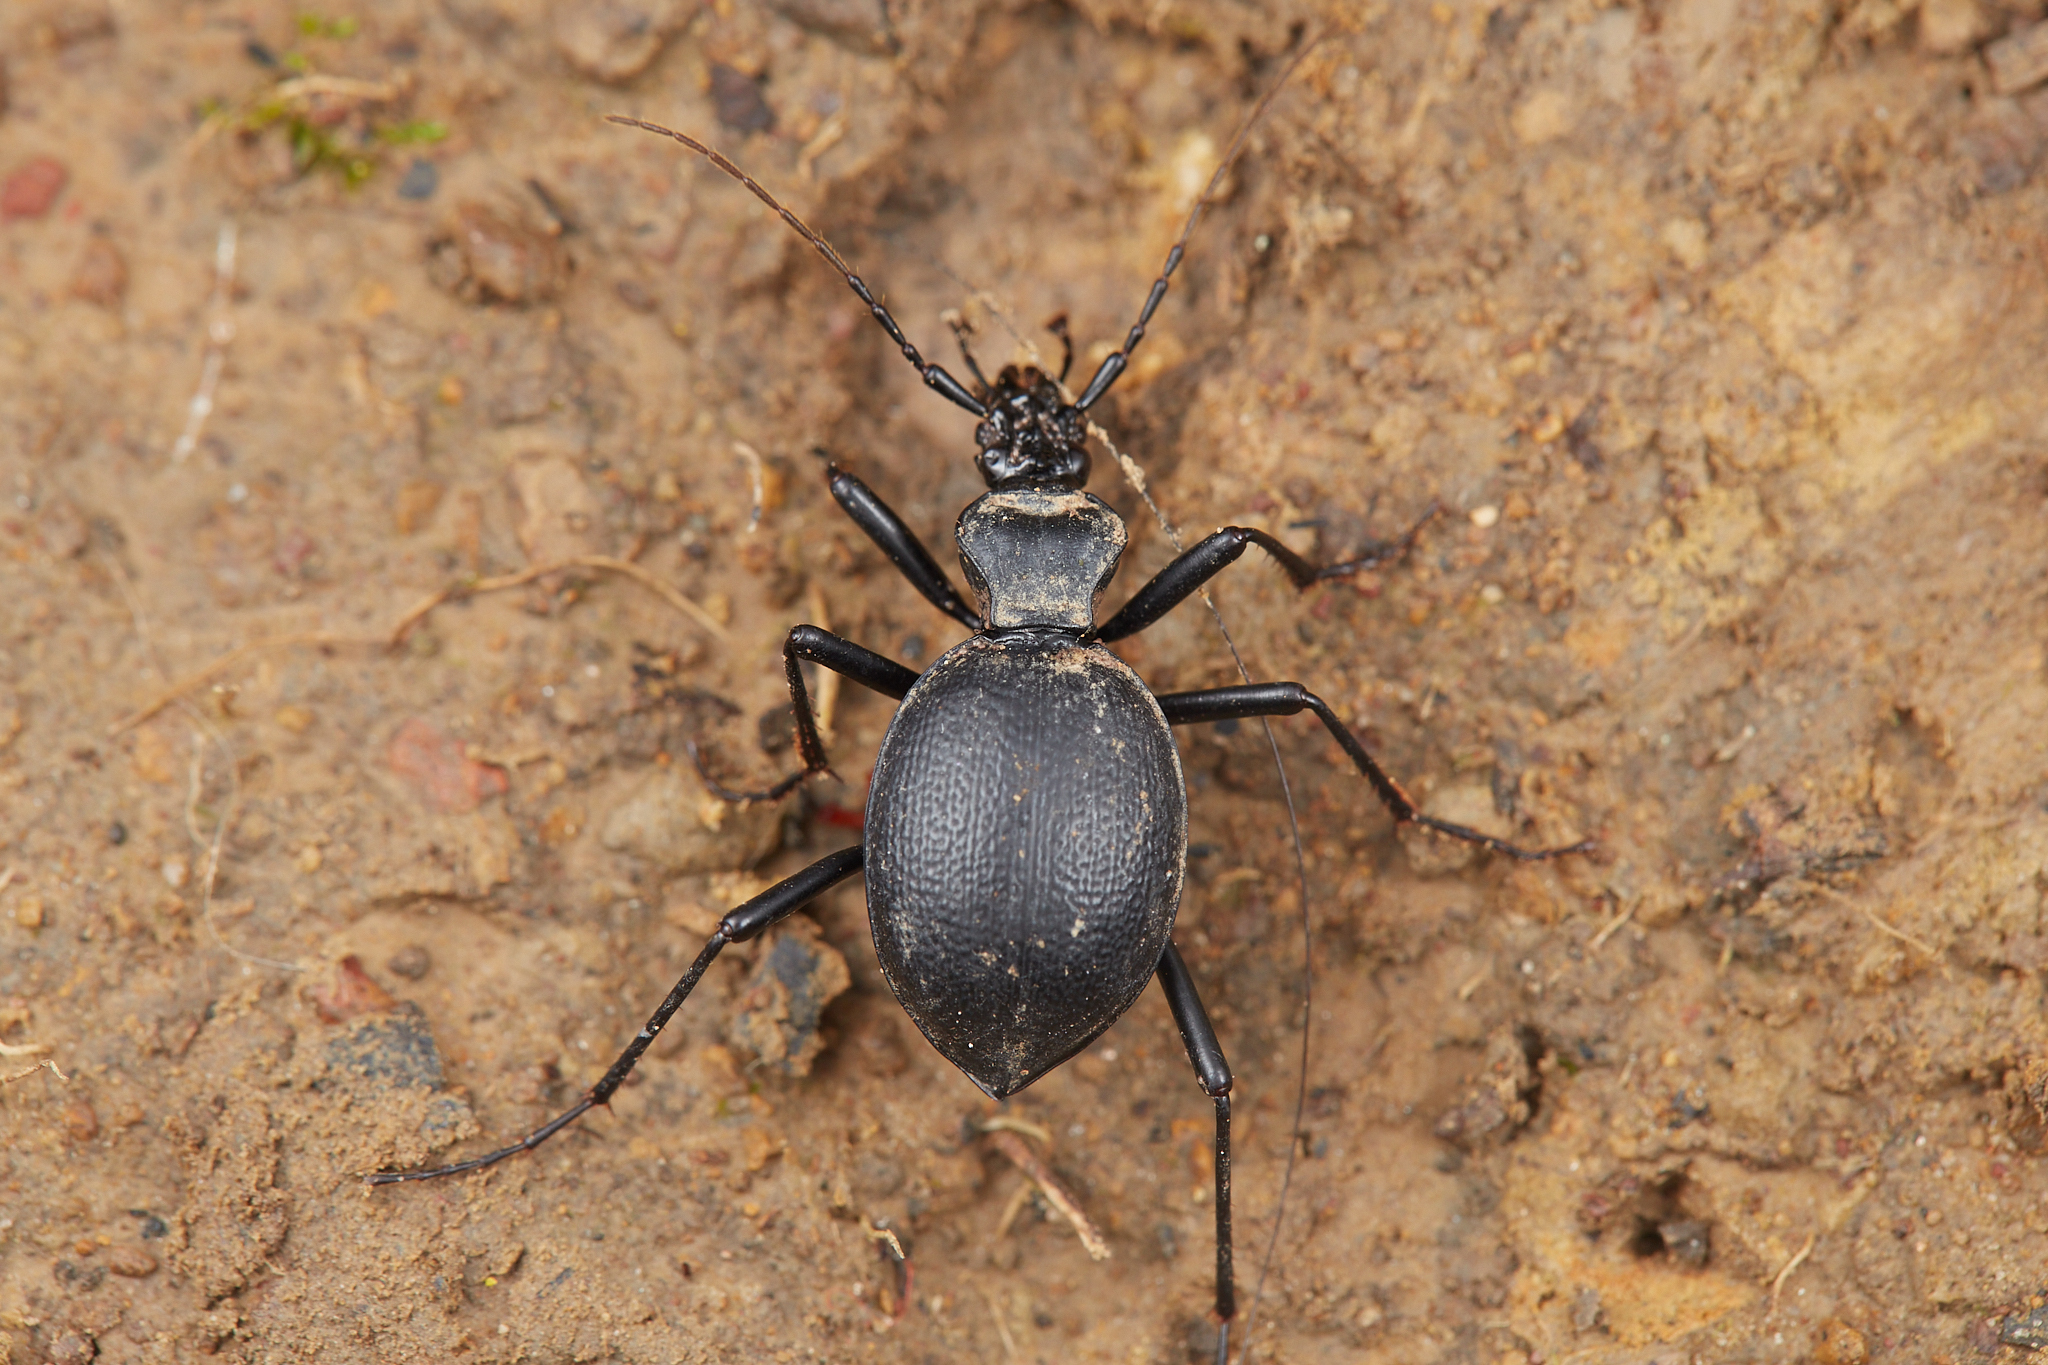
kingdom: Animalia
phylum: Arthropoda
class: Insecta
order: Coleoptera
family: Carabidae
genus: Scaphinotus
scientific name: Scaphinotus cristatus
